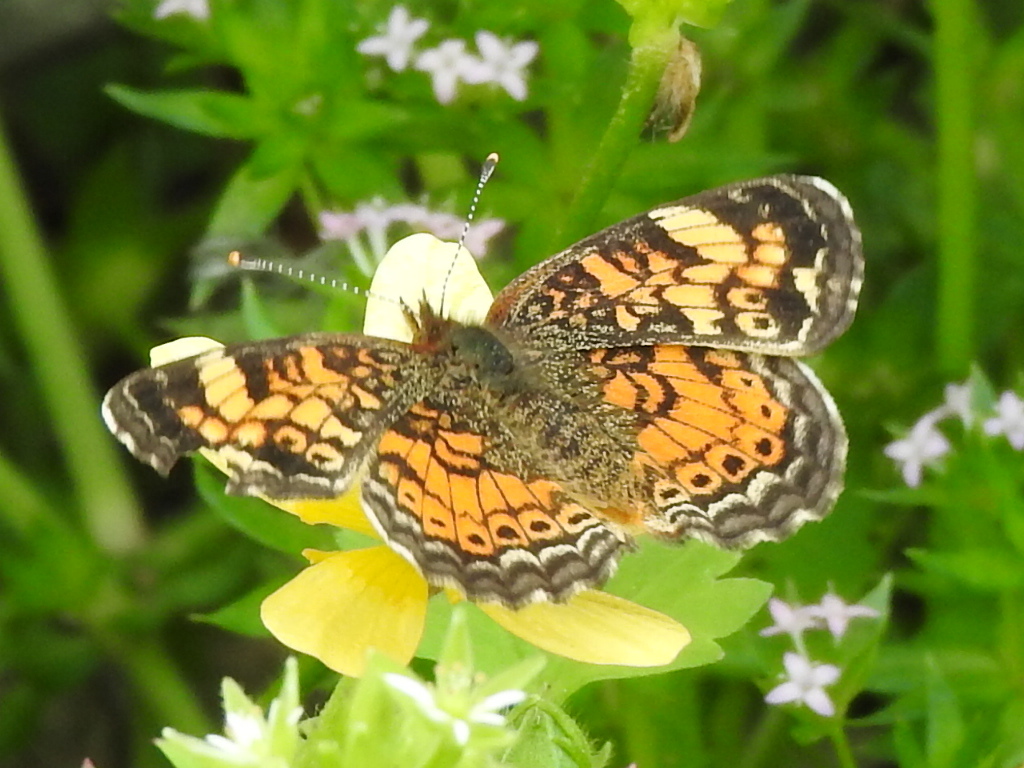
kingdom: Animalia
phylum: Arthropoda
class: Insecta
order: Lepidoptera
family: Nymphalidae
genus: Phyciodes
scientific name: Phyciodes tharos
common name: Pearl crescent
